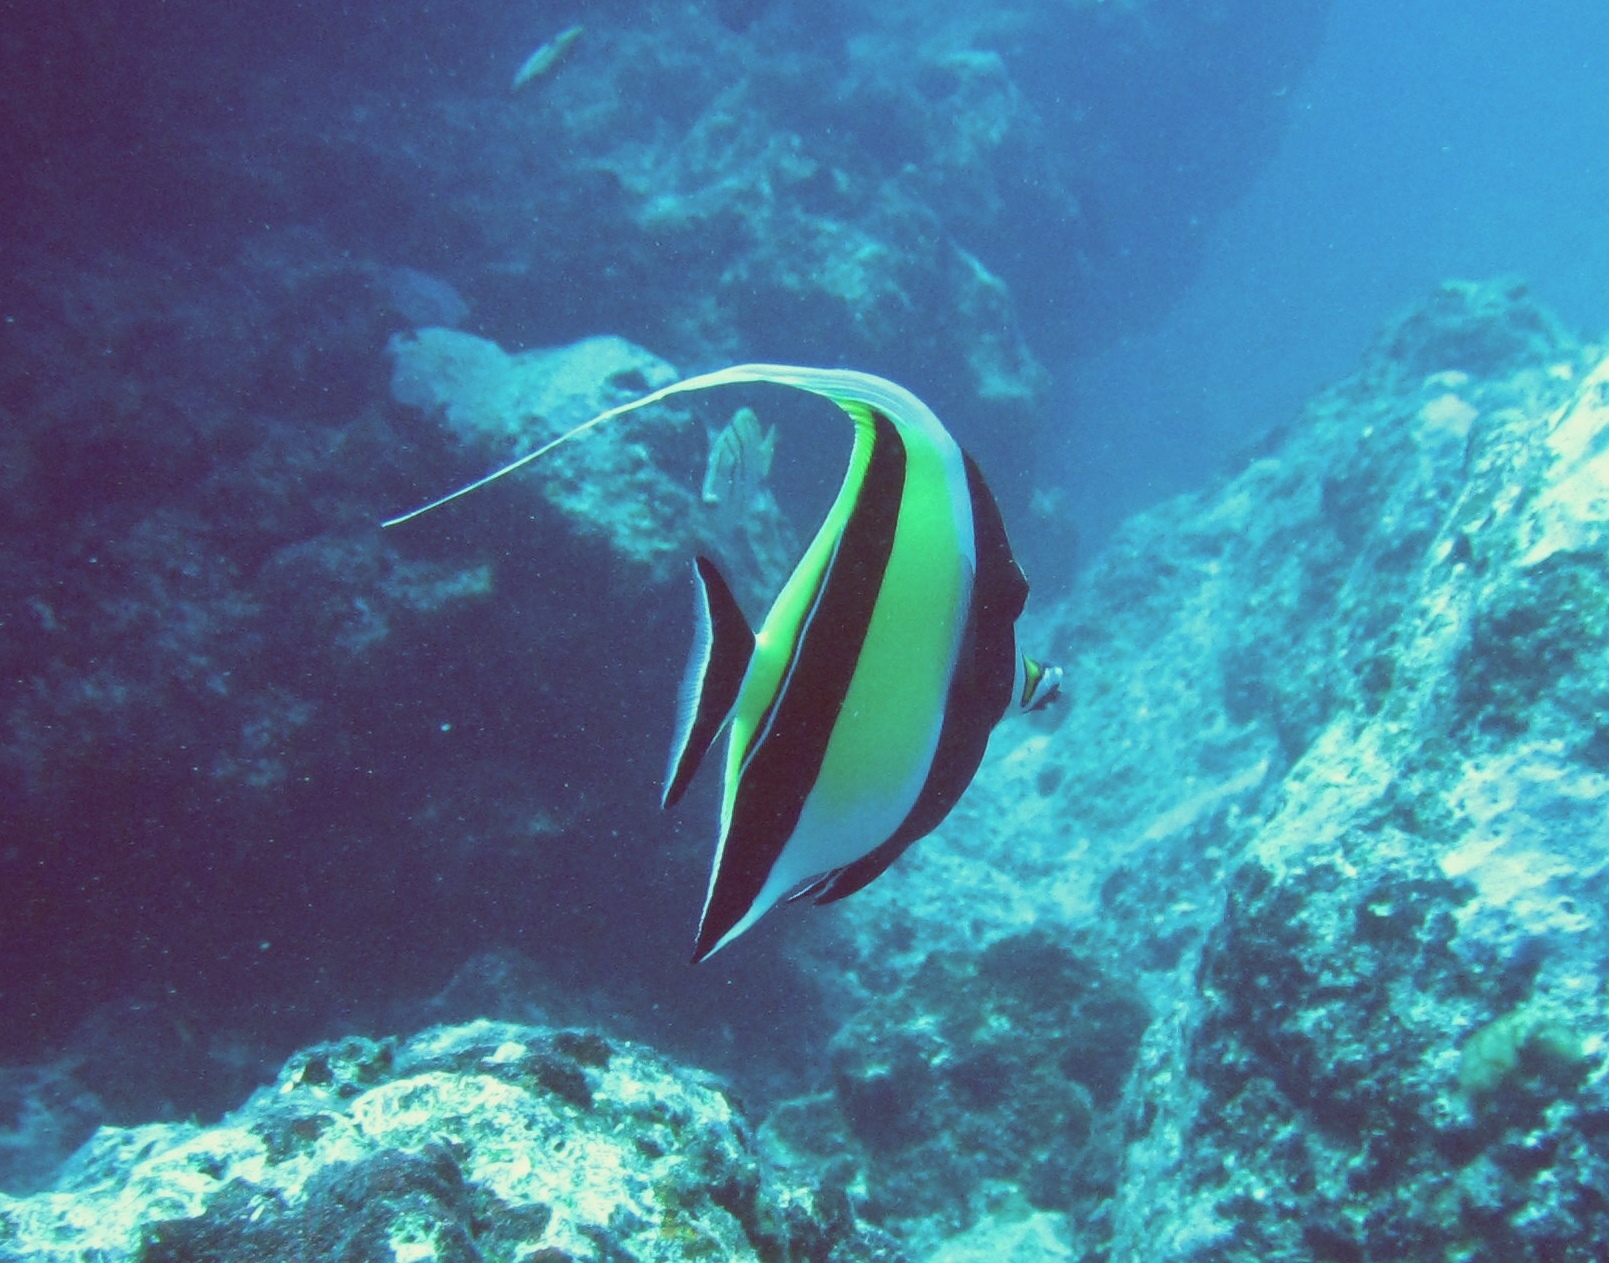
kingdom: Animalia
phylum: Chordata
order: Perciformes
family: Zanclidae
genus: Zanclus
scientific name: Zanclus cornutus
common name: Moorish idol
